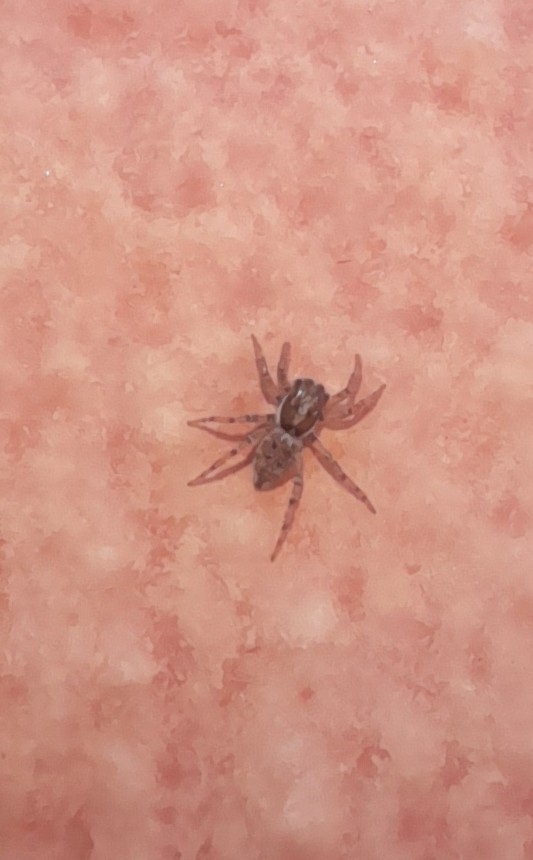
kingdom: Animalia
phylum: Arthropoda
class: Arachnida
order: Araneae
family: Salticidae
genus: Menemerus
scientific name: Menemerus semilimbatus
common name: Jumping spider
